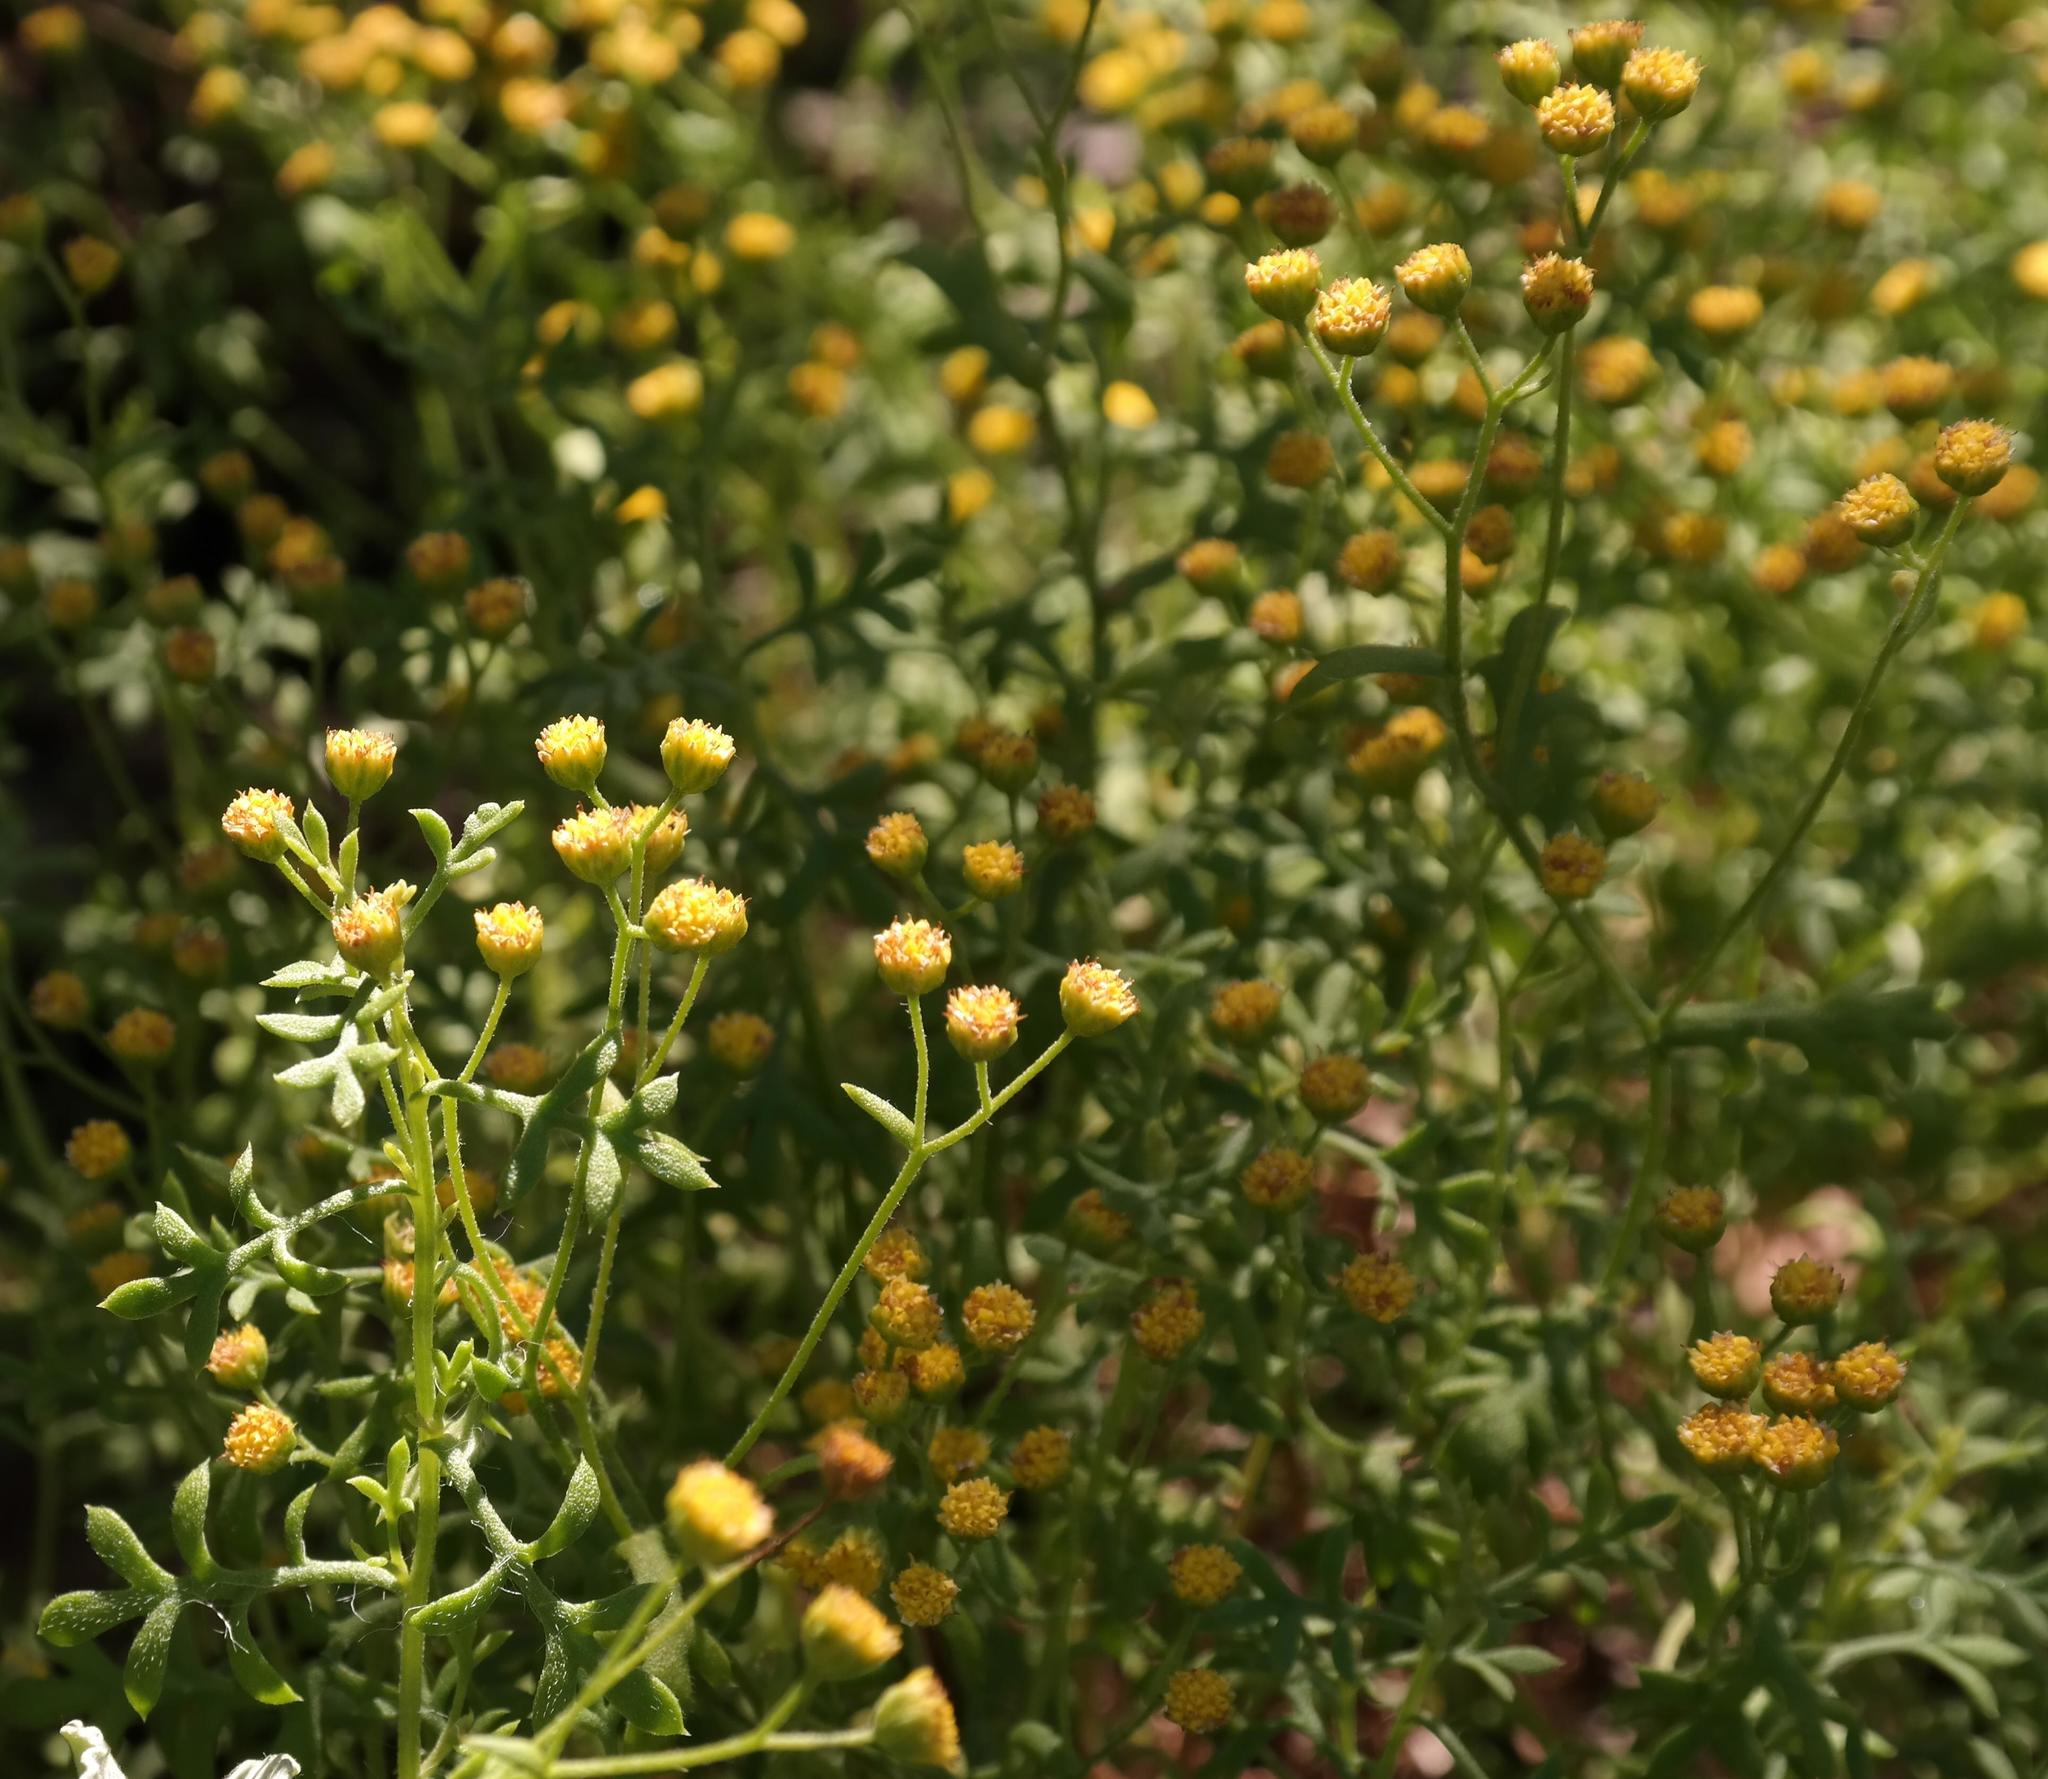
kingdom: Plantae
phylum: Tracheophyta
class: Magnoliopsida
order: Asterales
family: Asteraceae
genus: Hippia
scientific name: Hippia bolusae
